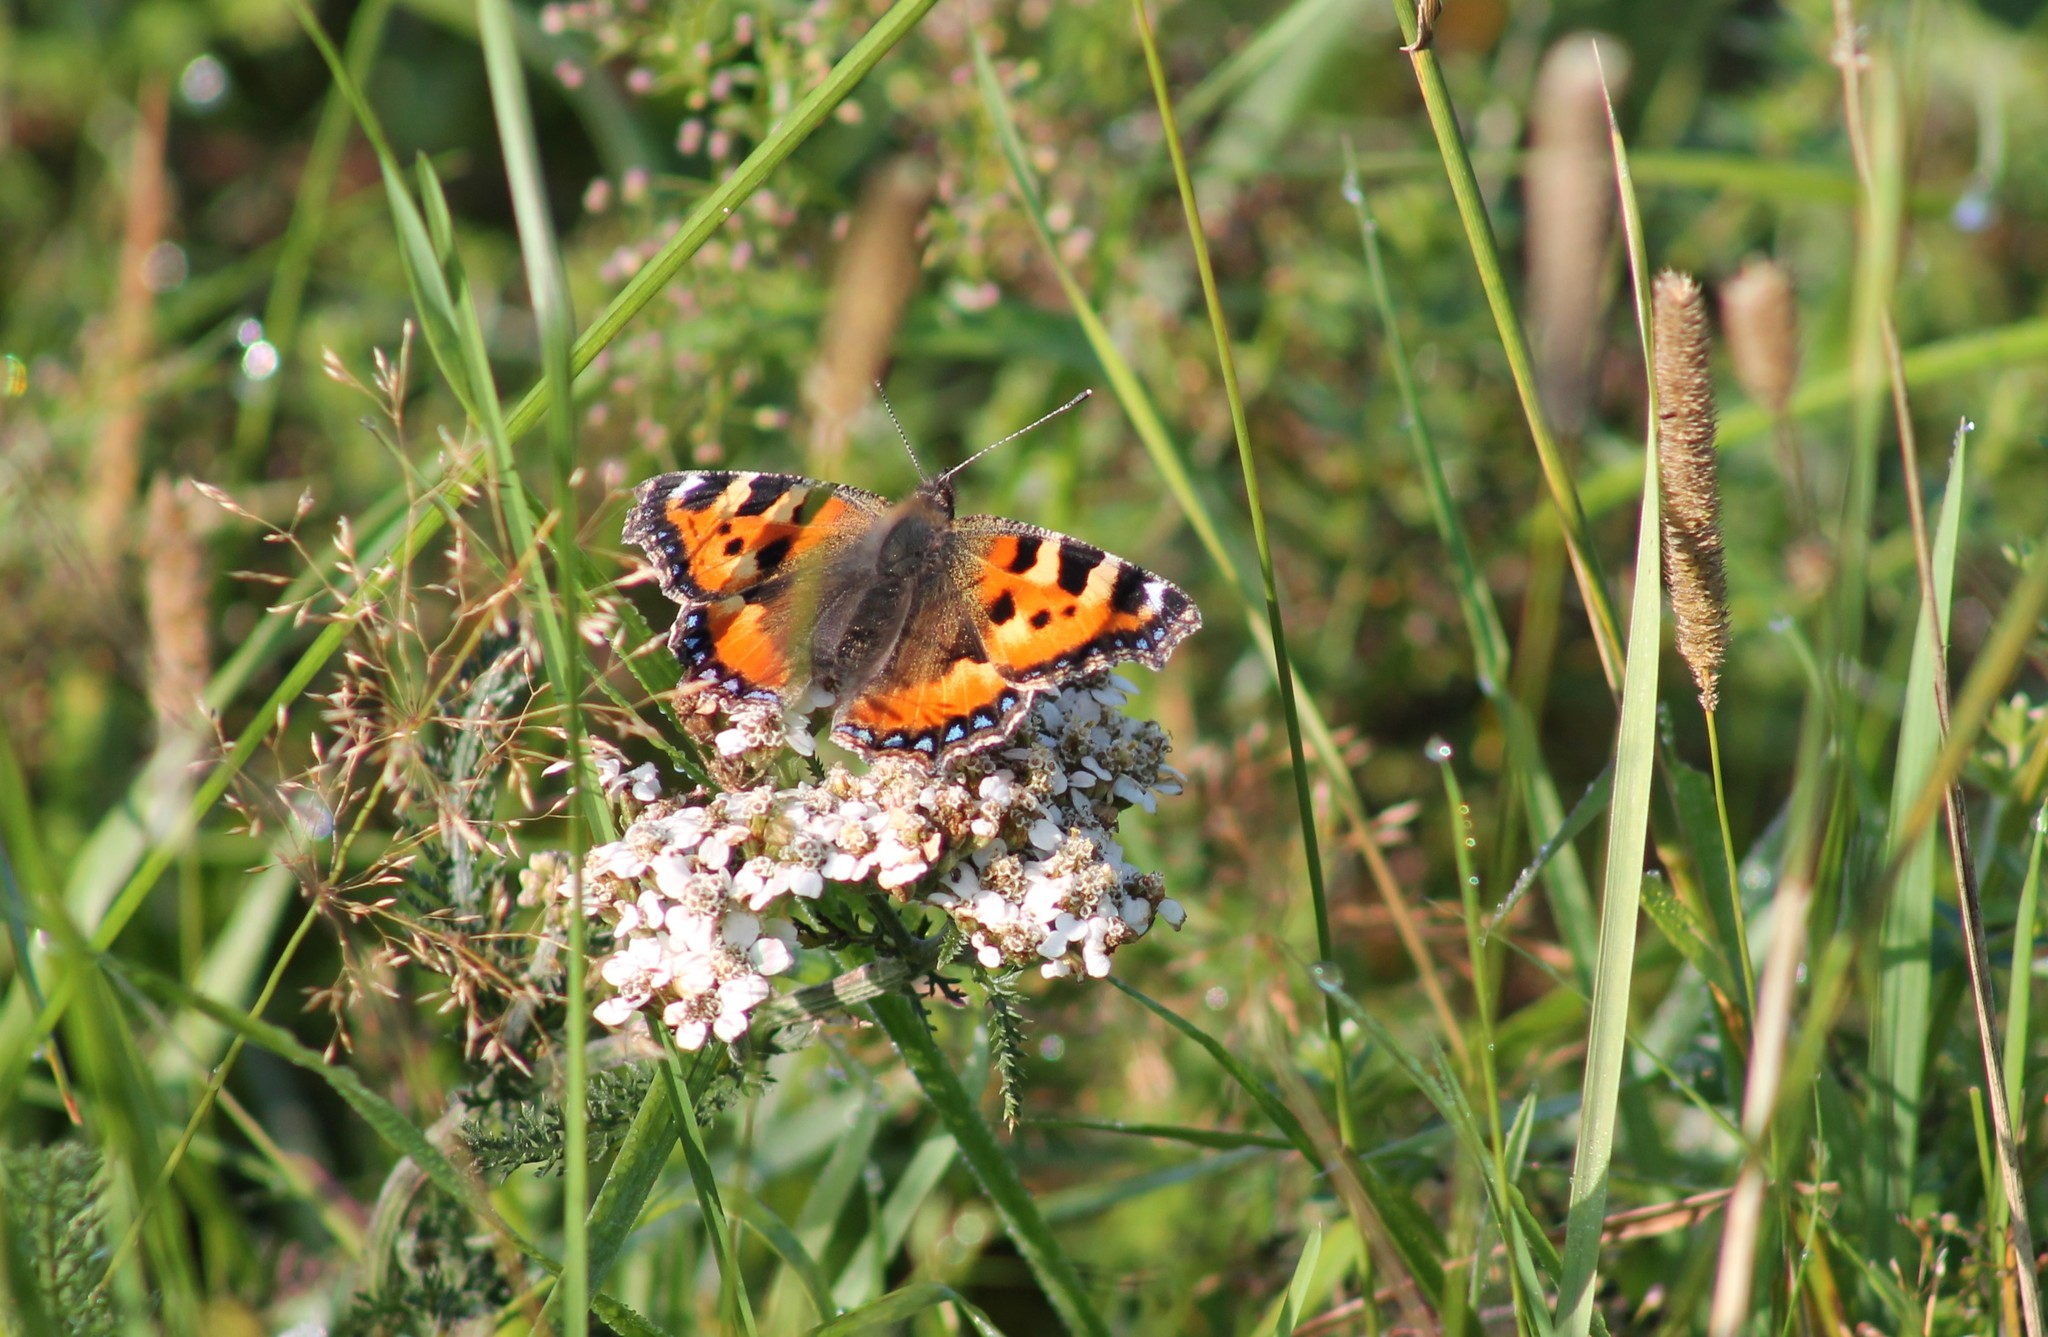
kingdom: Animalia
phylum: Arthropoda
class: Insecta
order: Lepidoptera
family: Nymphalidae
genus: Aglais
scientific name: Aglais urticae
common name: Small tortoiseshell
